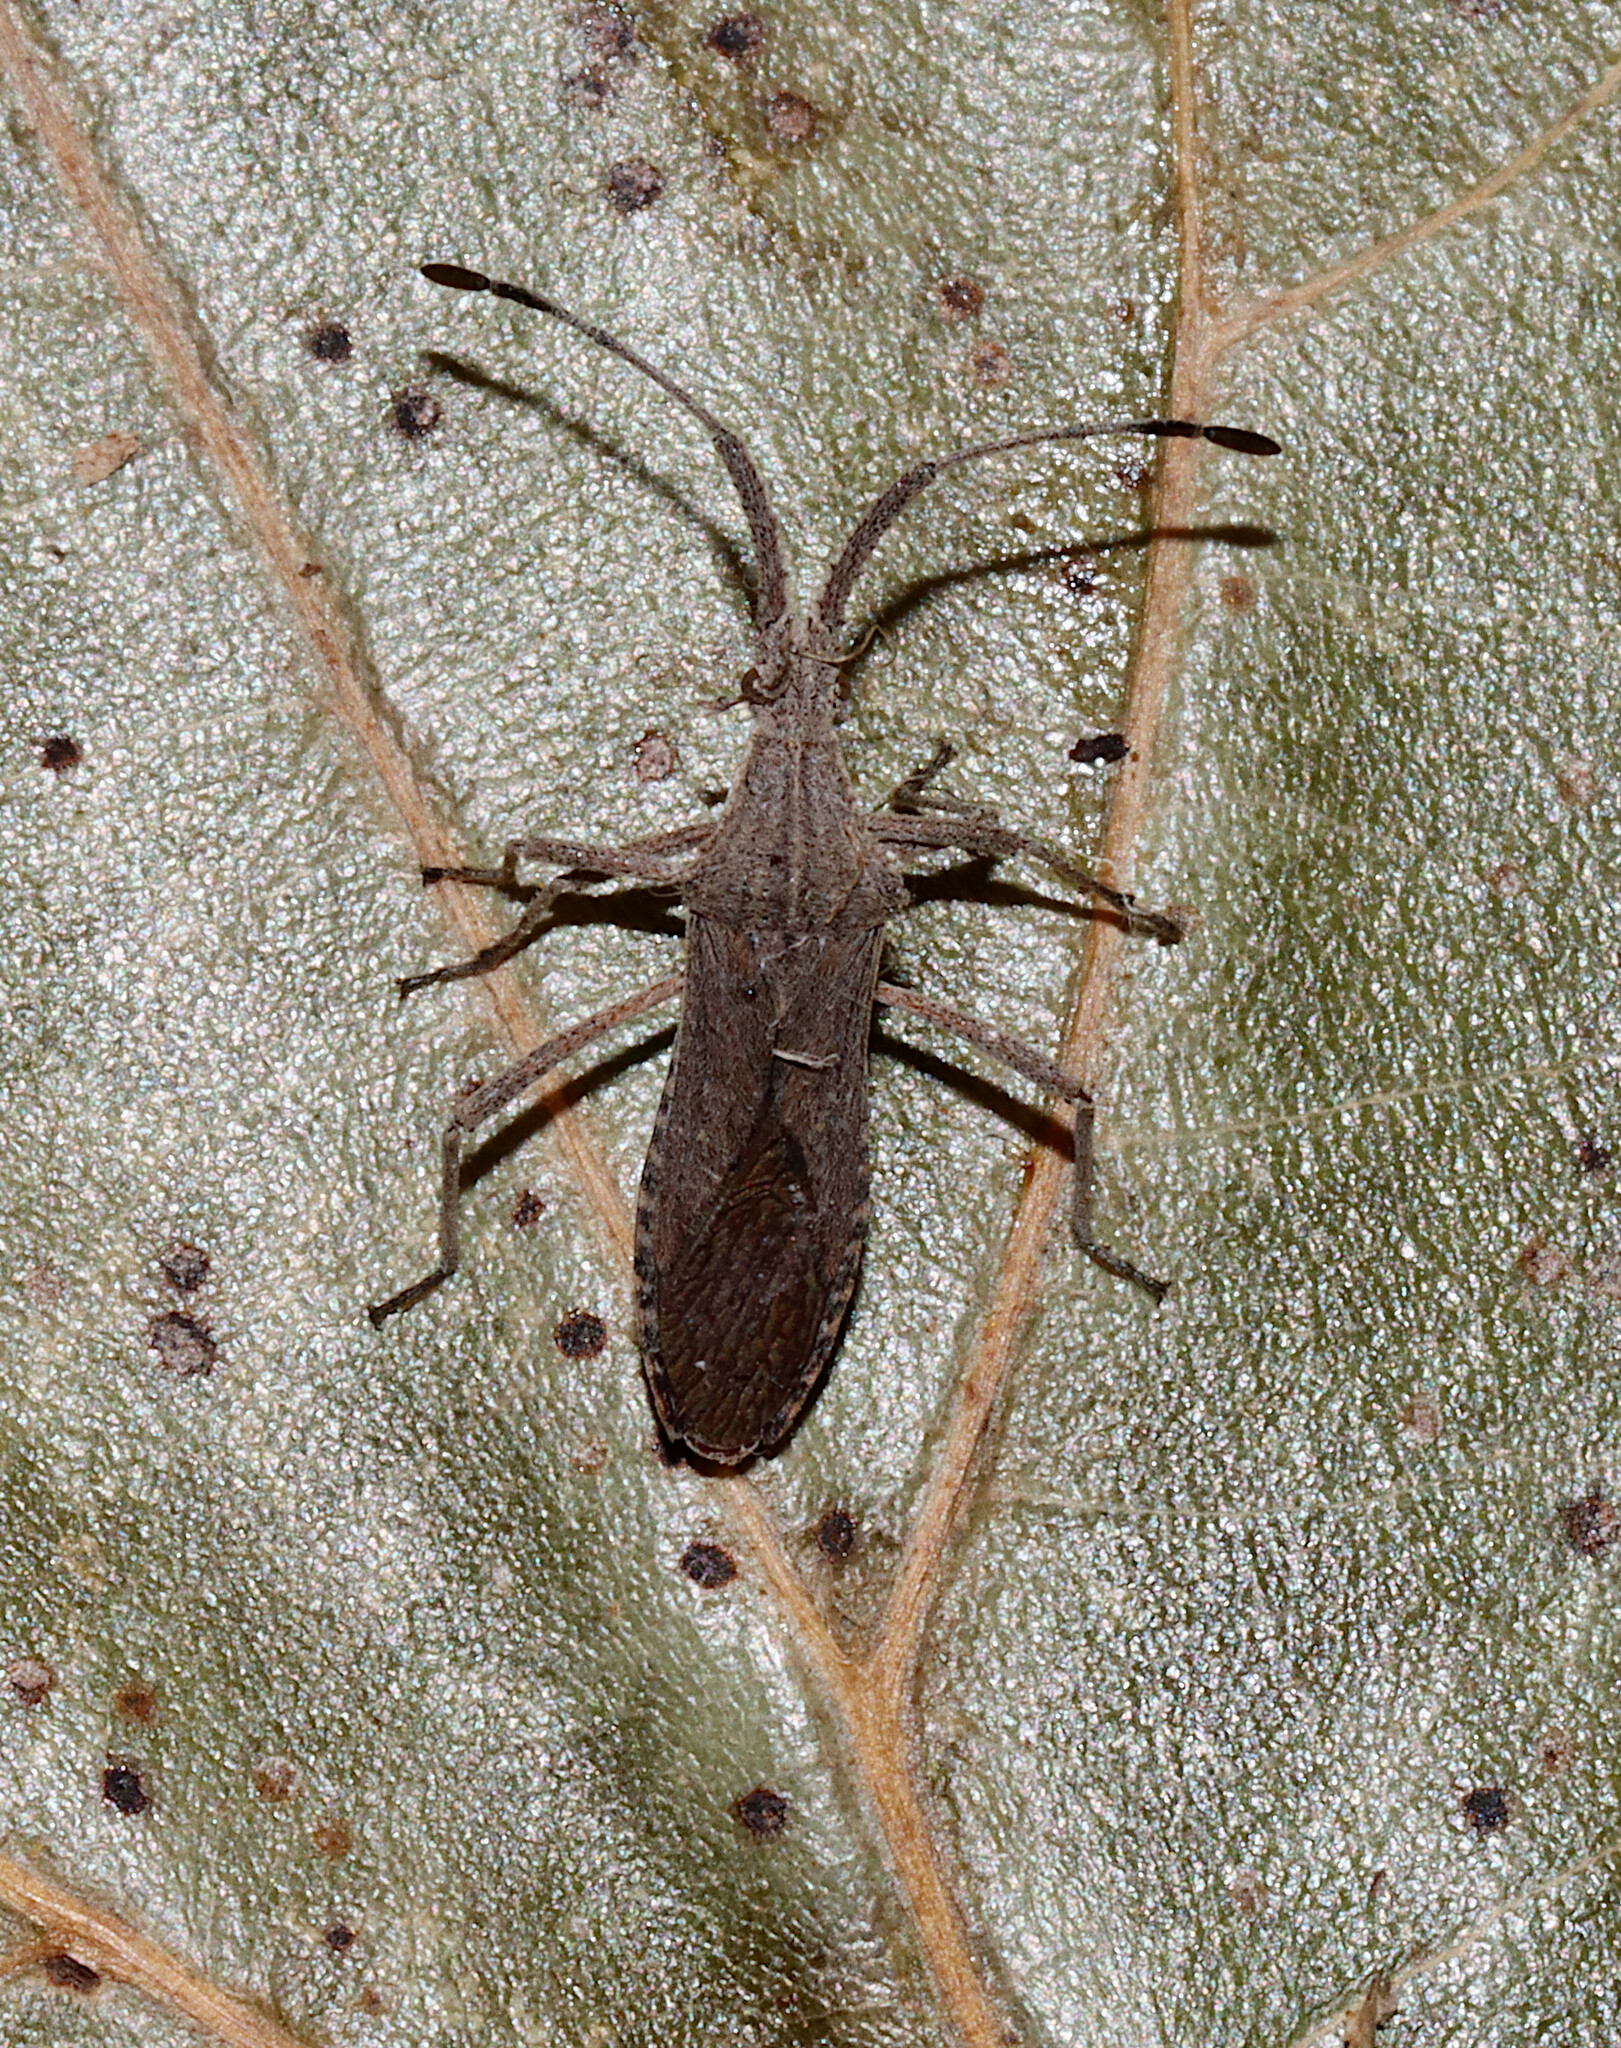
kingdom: Animalia
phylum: Arthropoda
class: Insecta
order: Hemiptera
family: Coreidae
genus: Chariesterus
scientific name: Chariesterus antennator
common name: Flat horned coreid
